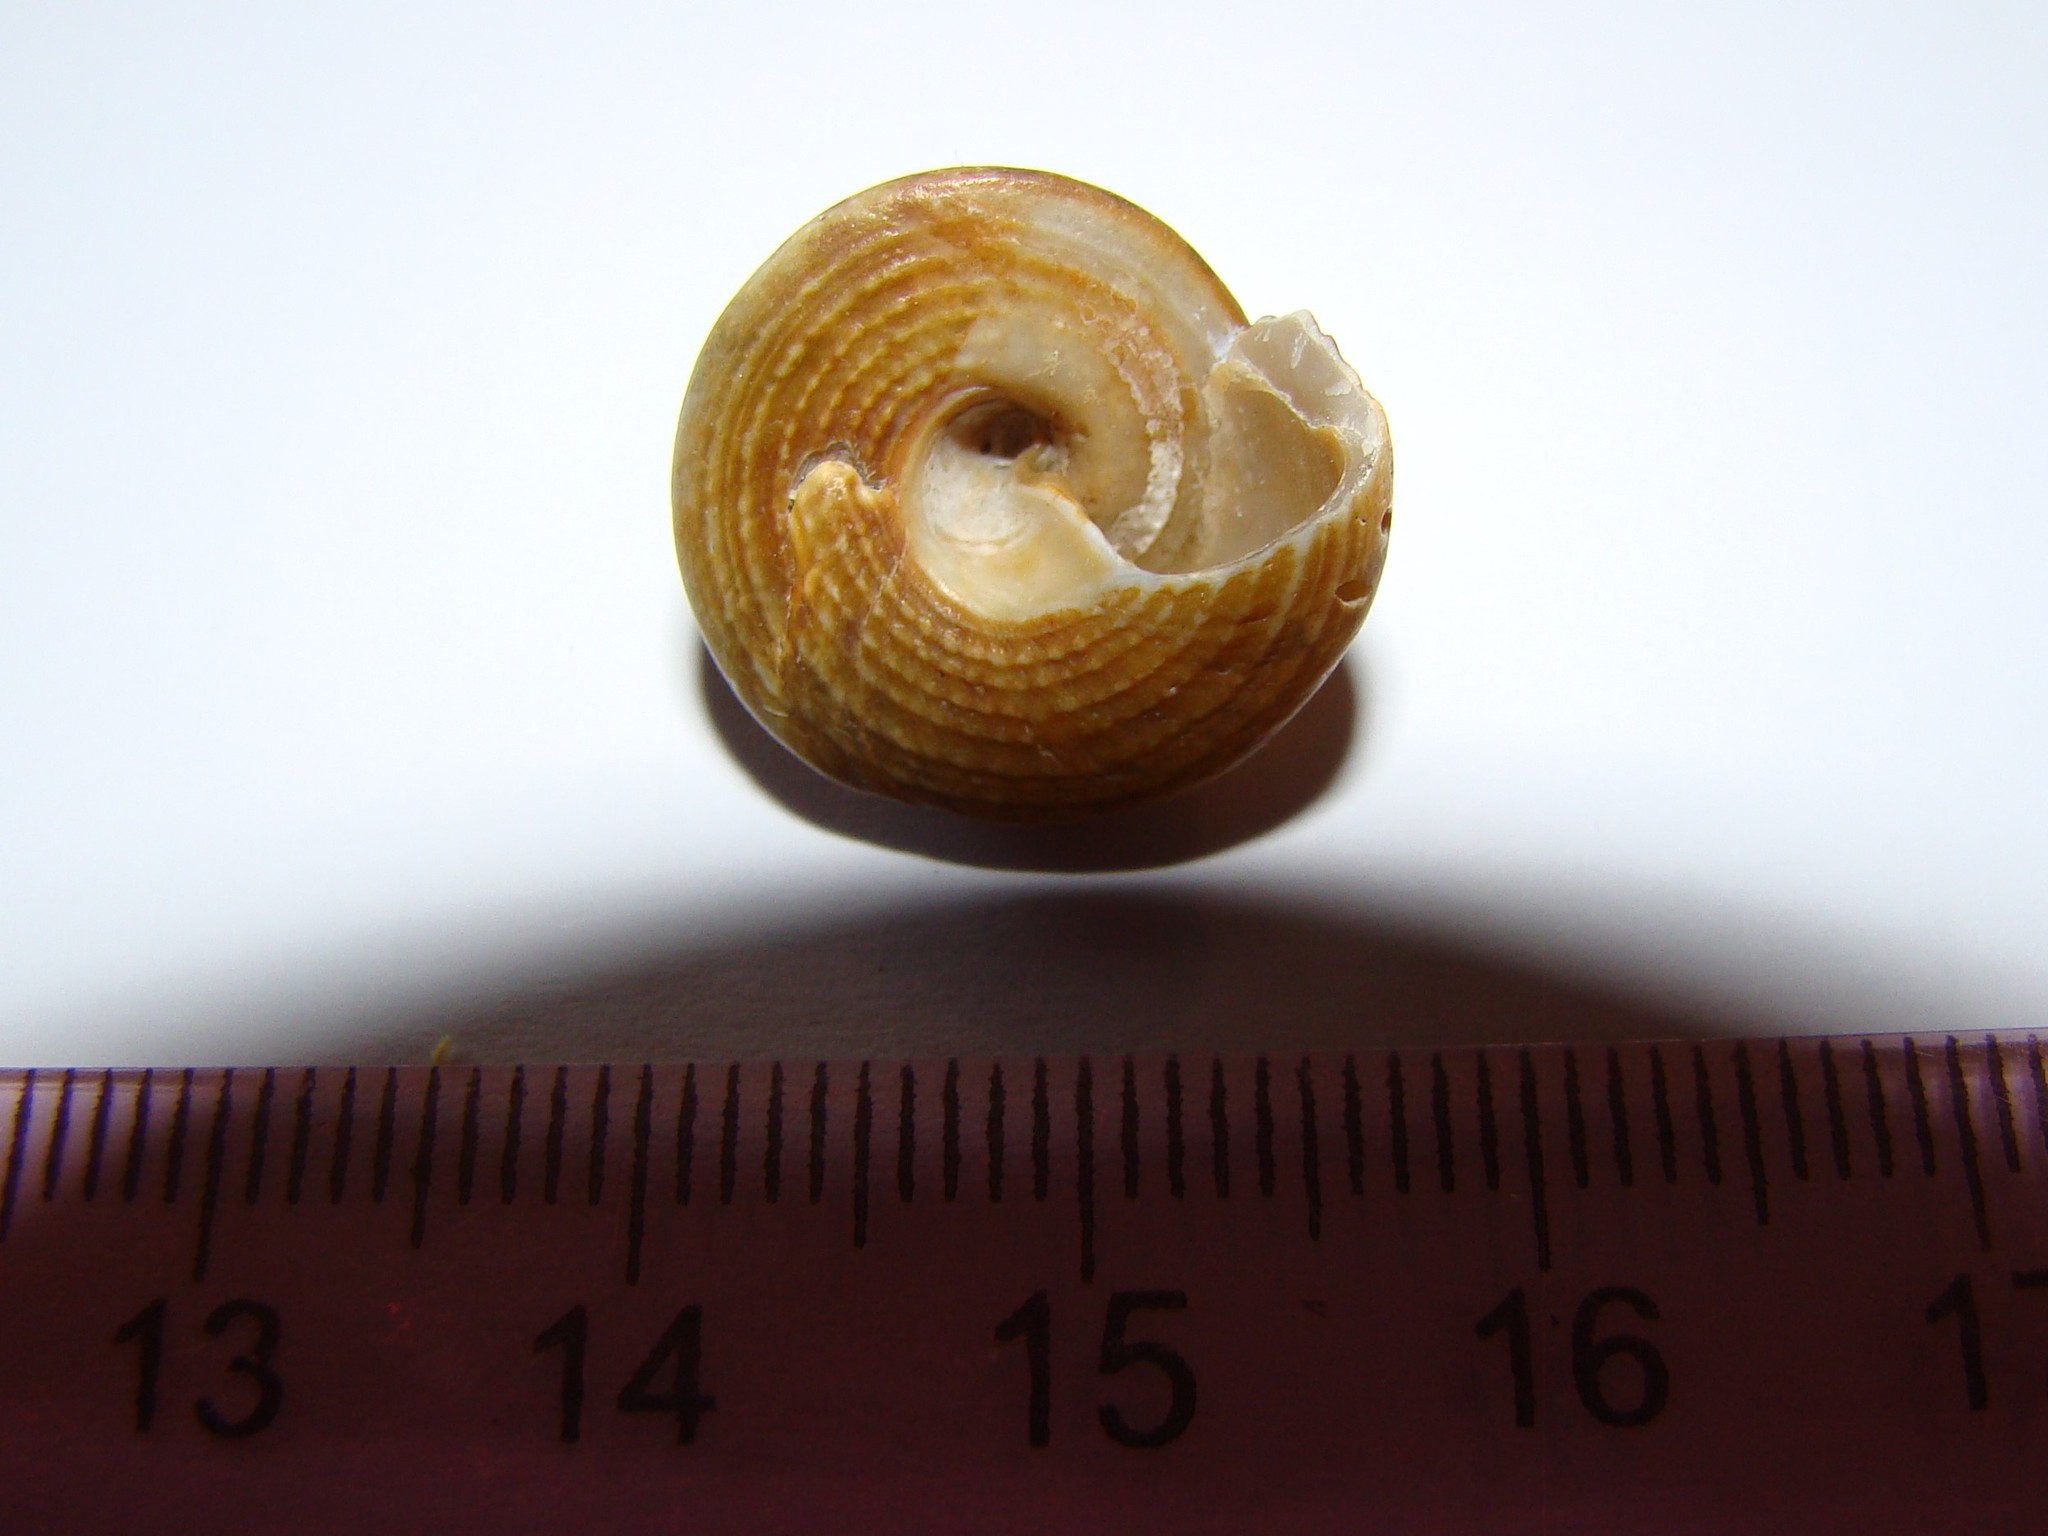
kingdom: Animalia
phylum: Mollusca
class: Gastropoda
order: Trochida
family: Trochidae
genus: Coelotrochus
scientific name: Coelotrochus tiaratus
